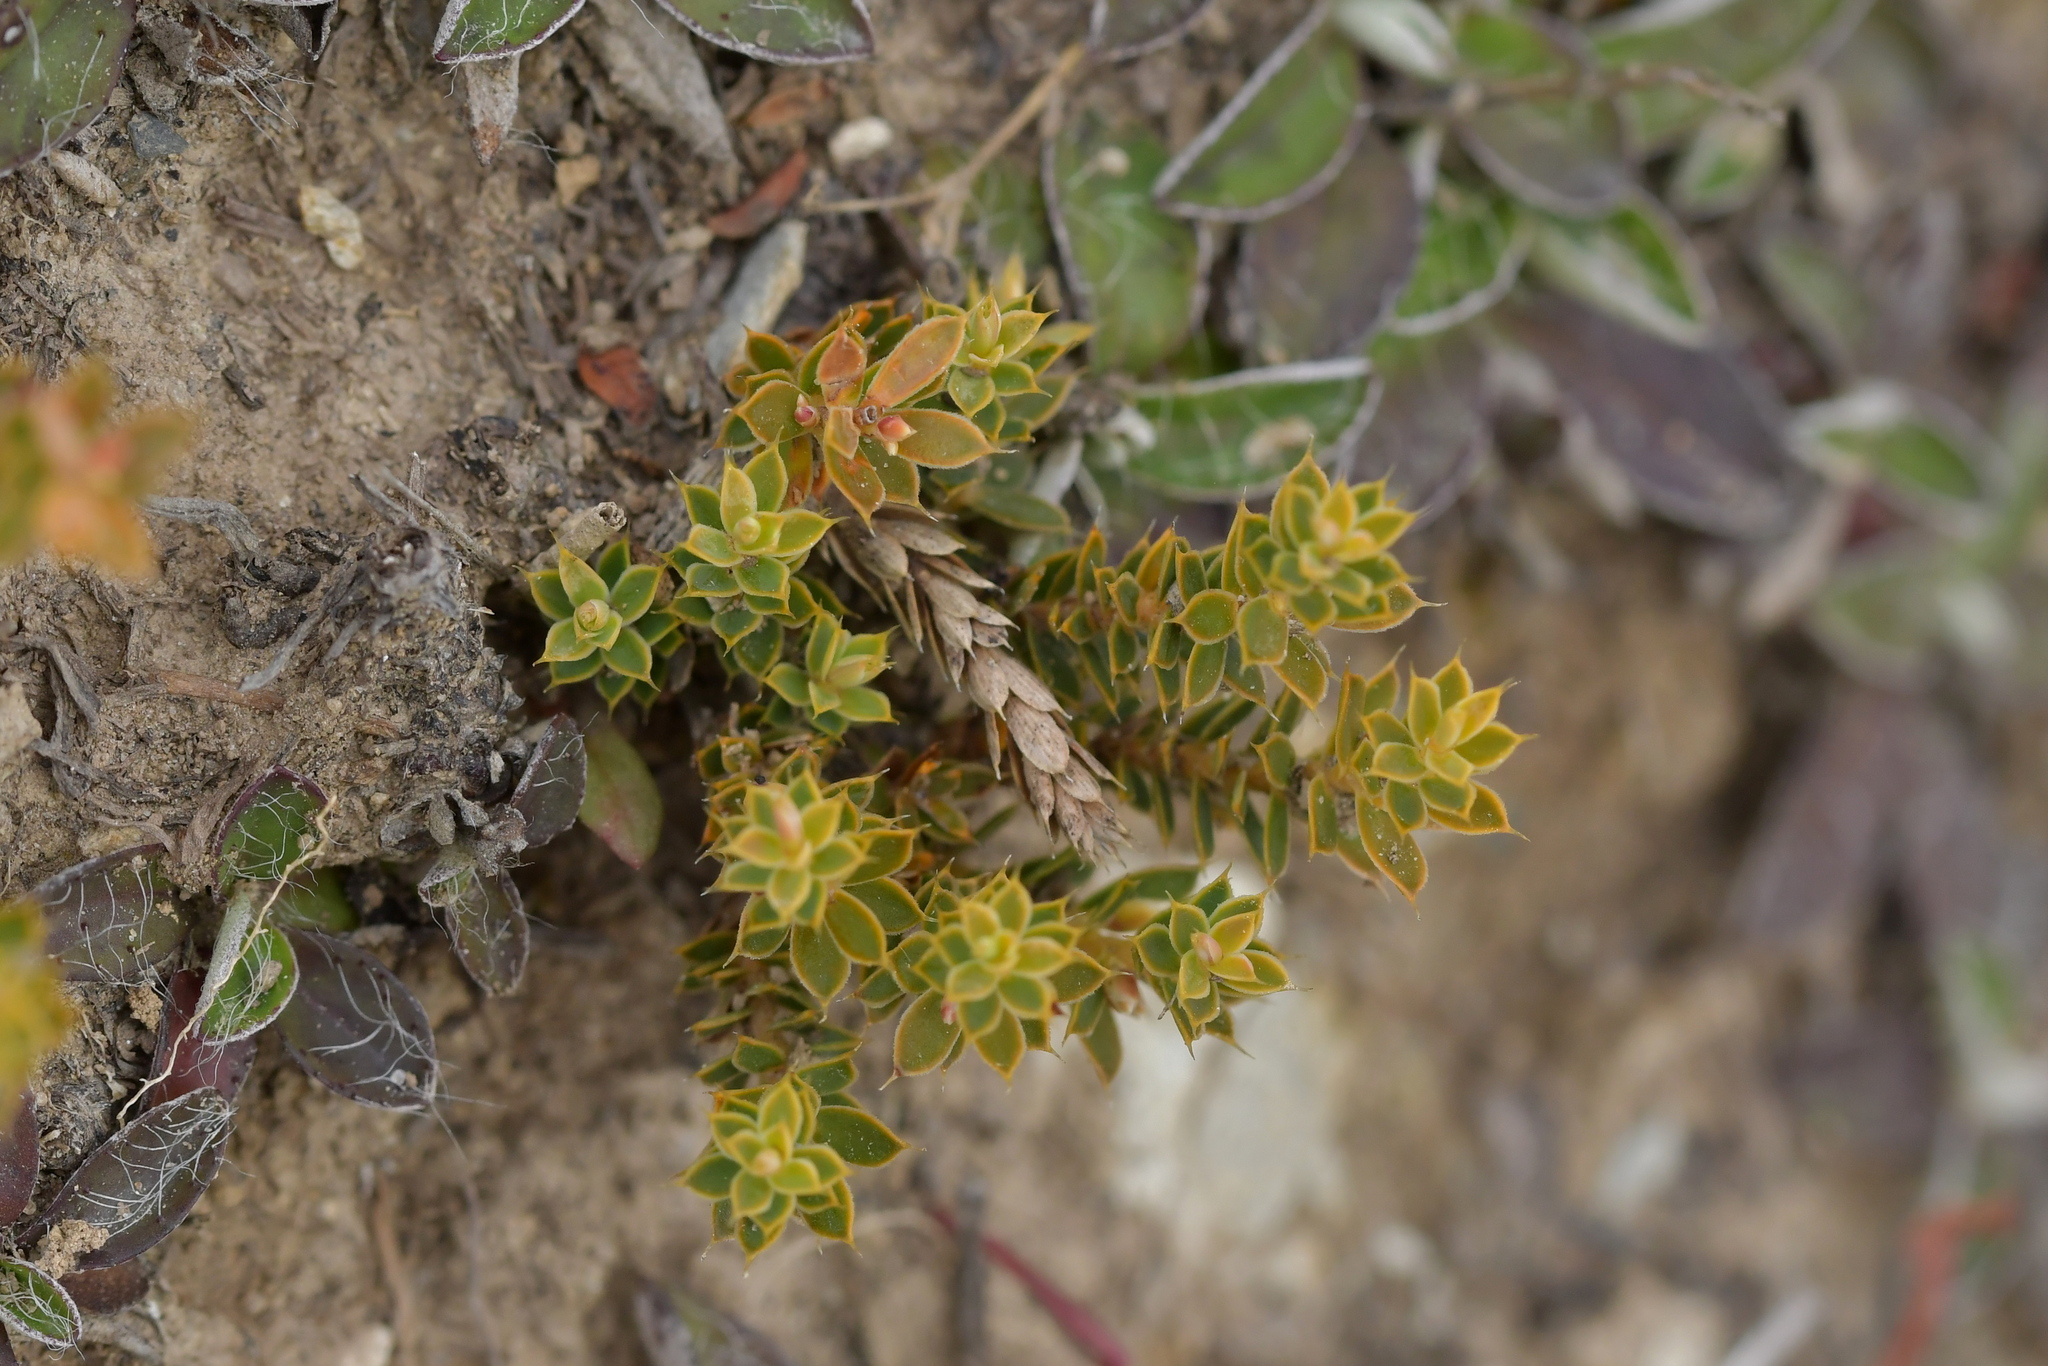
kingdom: Plantae
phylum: Tracheophyta
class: Magnoliopsida
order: Ericales
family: Ericaceae
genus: Styphelia
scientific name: Styphelia nesophila
